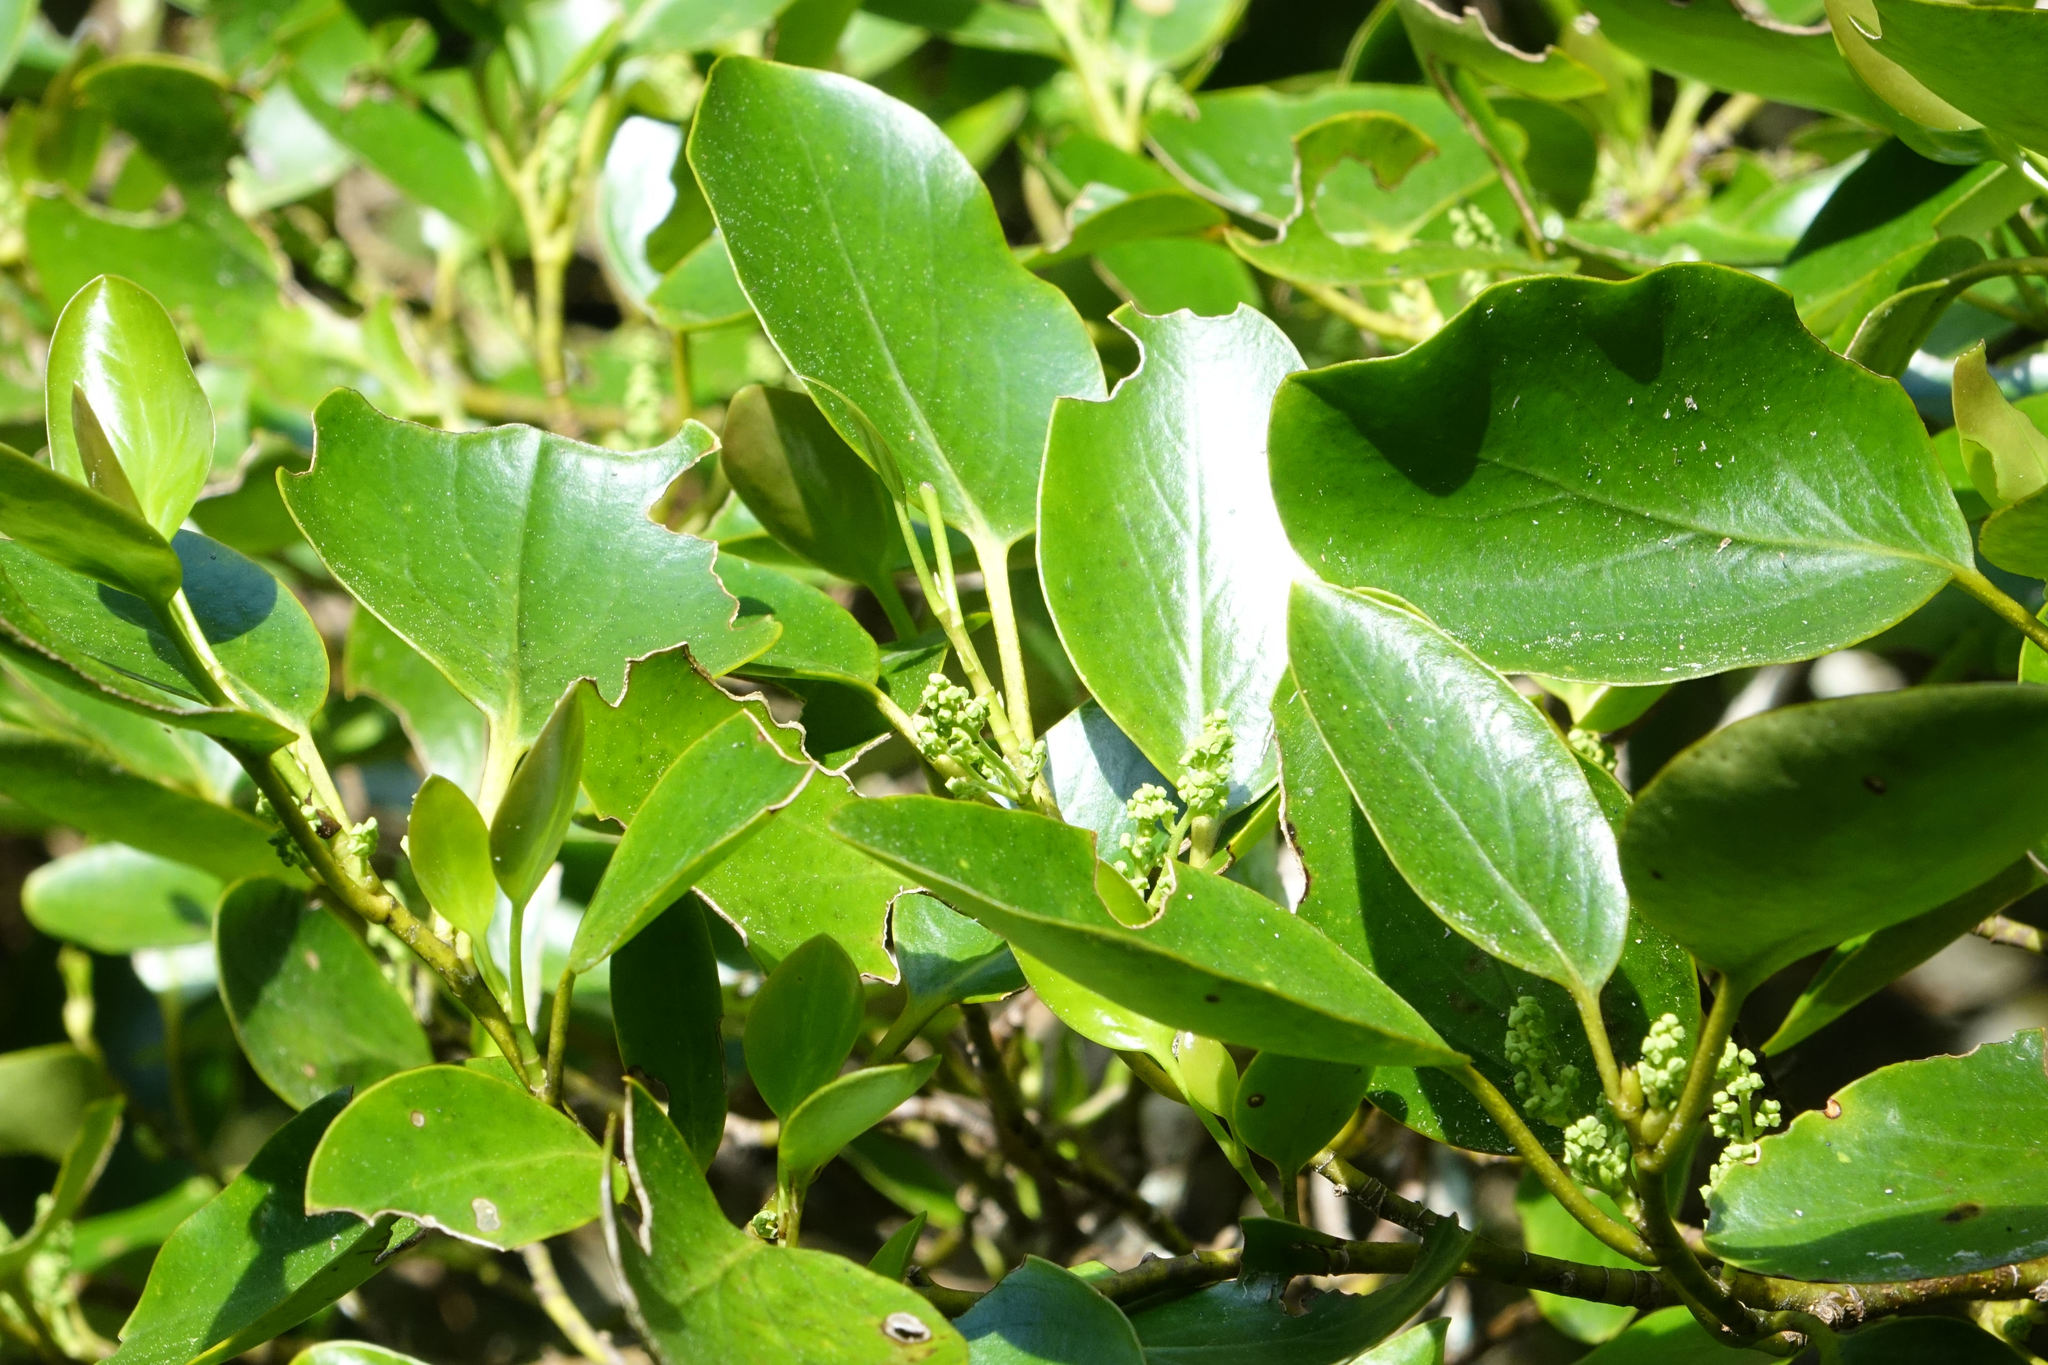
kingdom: Plantae
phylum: Tracheophyta
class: Magnoliopsida
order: Apiales
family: Griseliniaceae
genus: Griselinia
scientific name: Griselinia littoralis
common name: New zealand broadleaf
